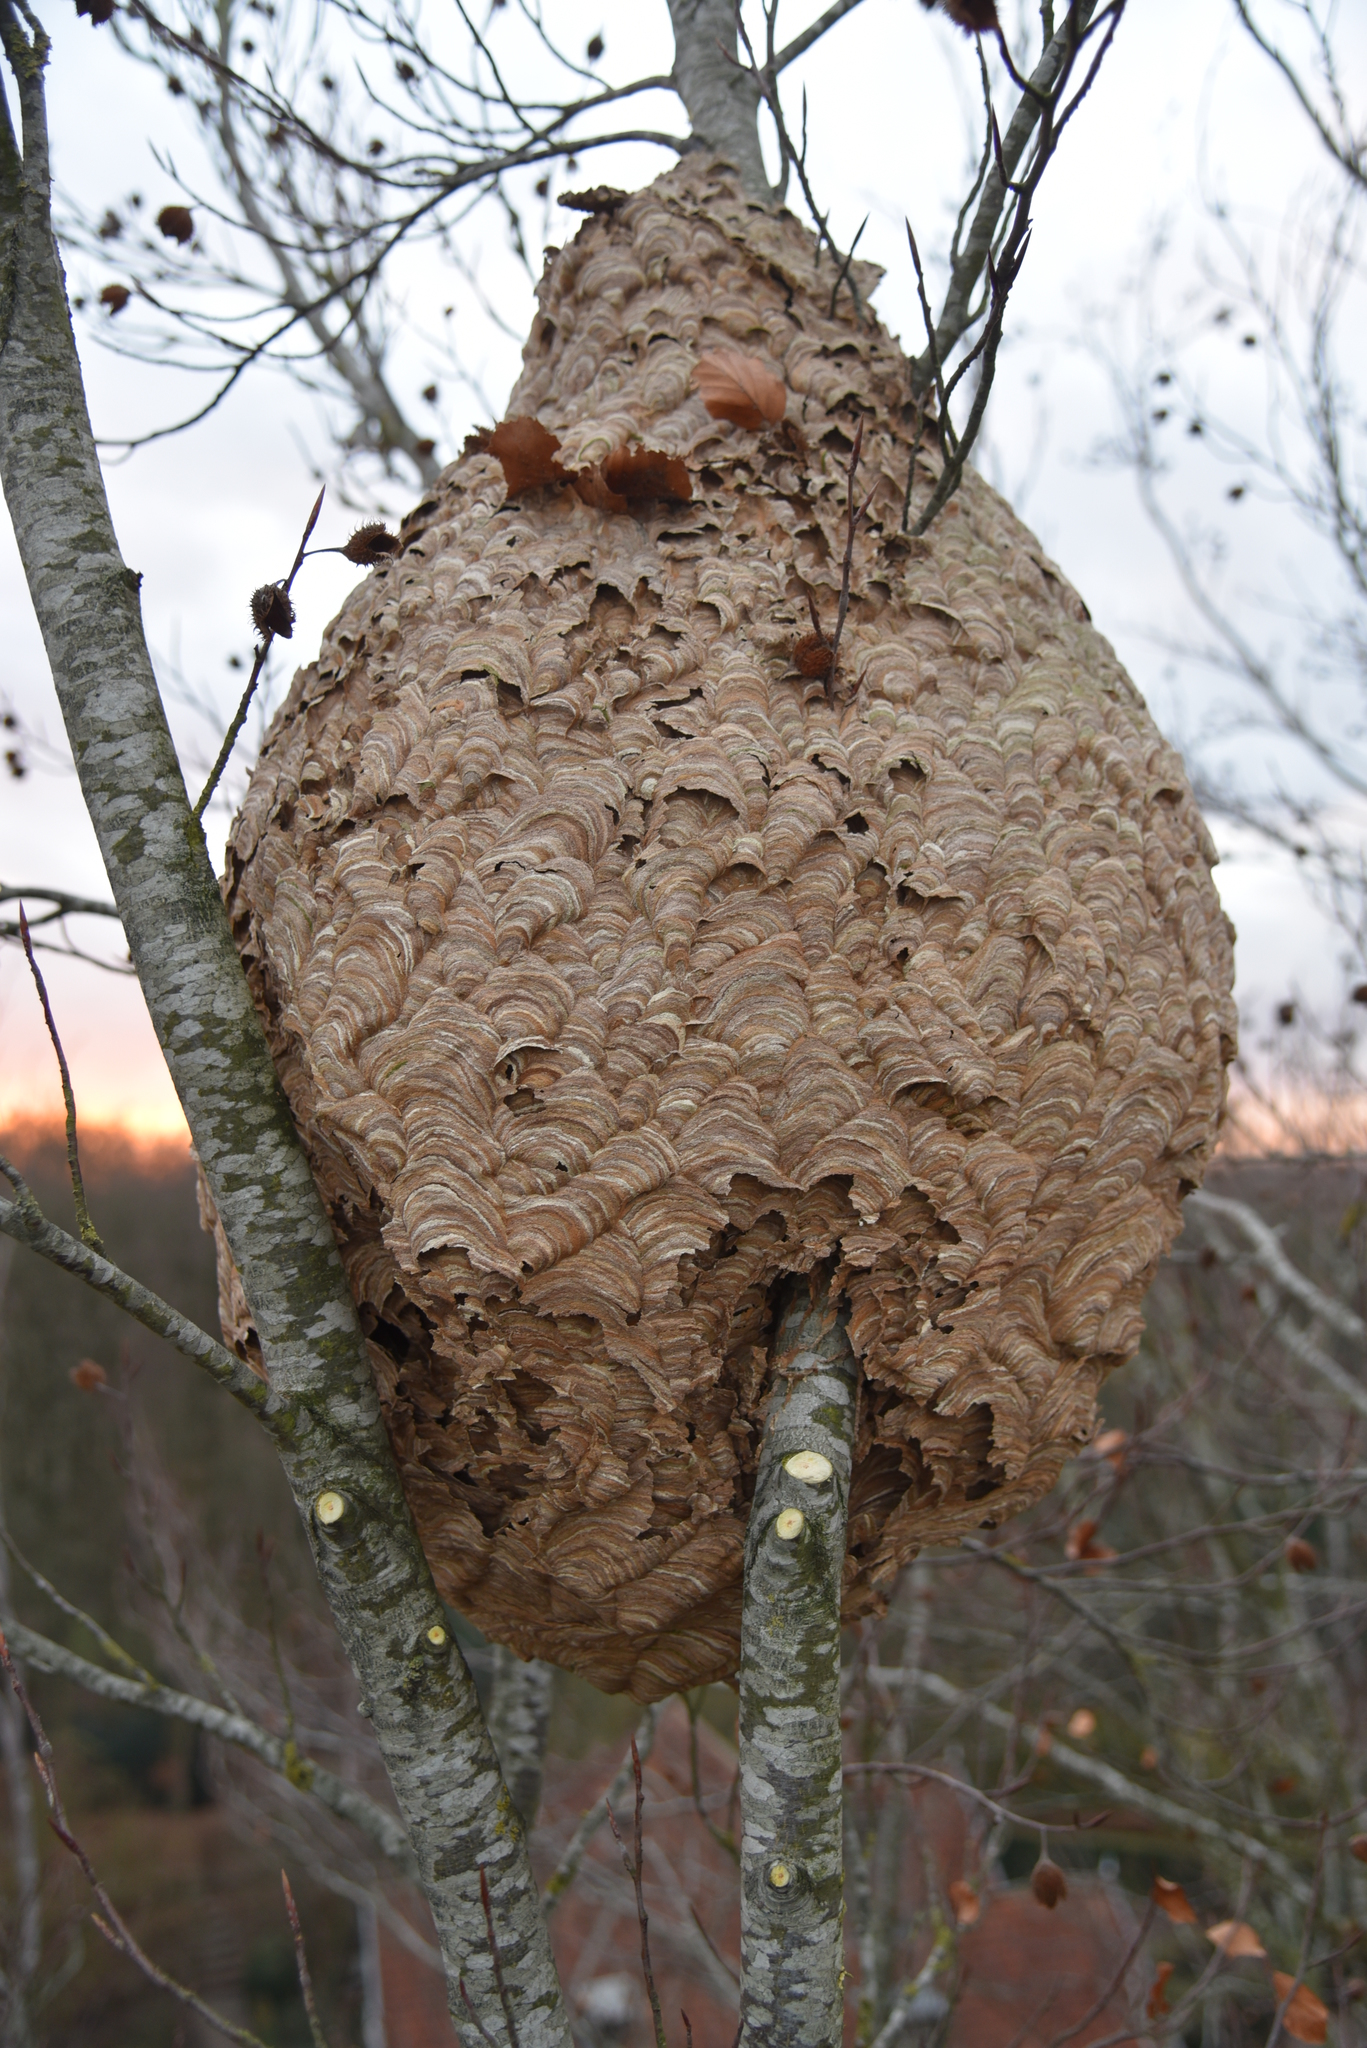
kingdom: Animalia
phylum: Arthropoda
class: Insecta
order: Hymenoptera
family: Vespidae
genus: Vespa
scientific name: Vespa velutina
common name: Asian hornet
